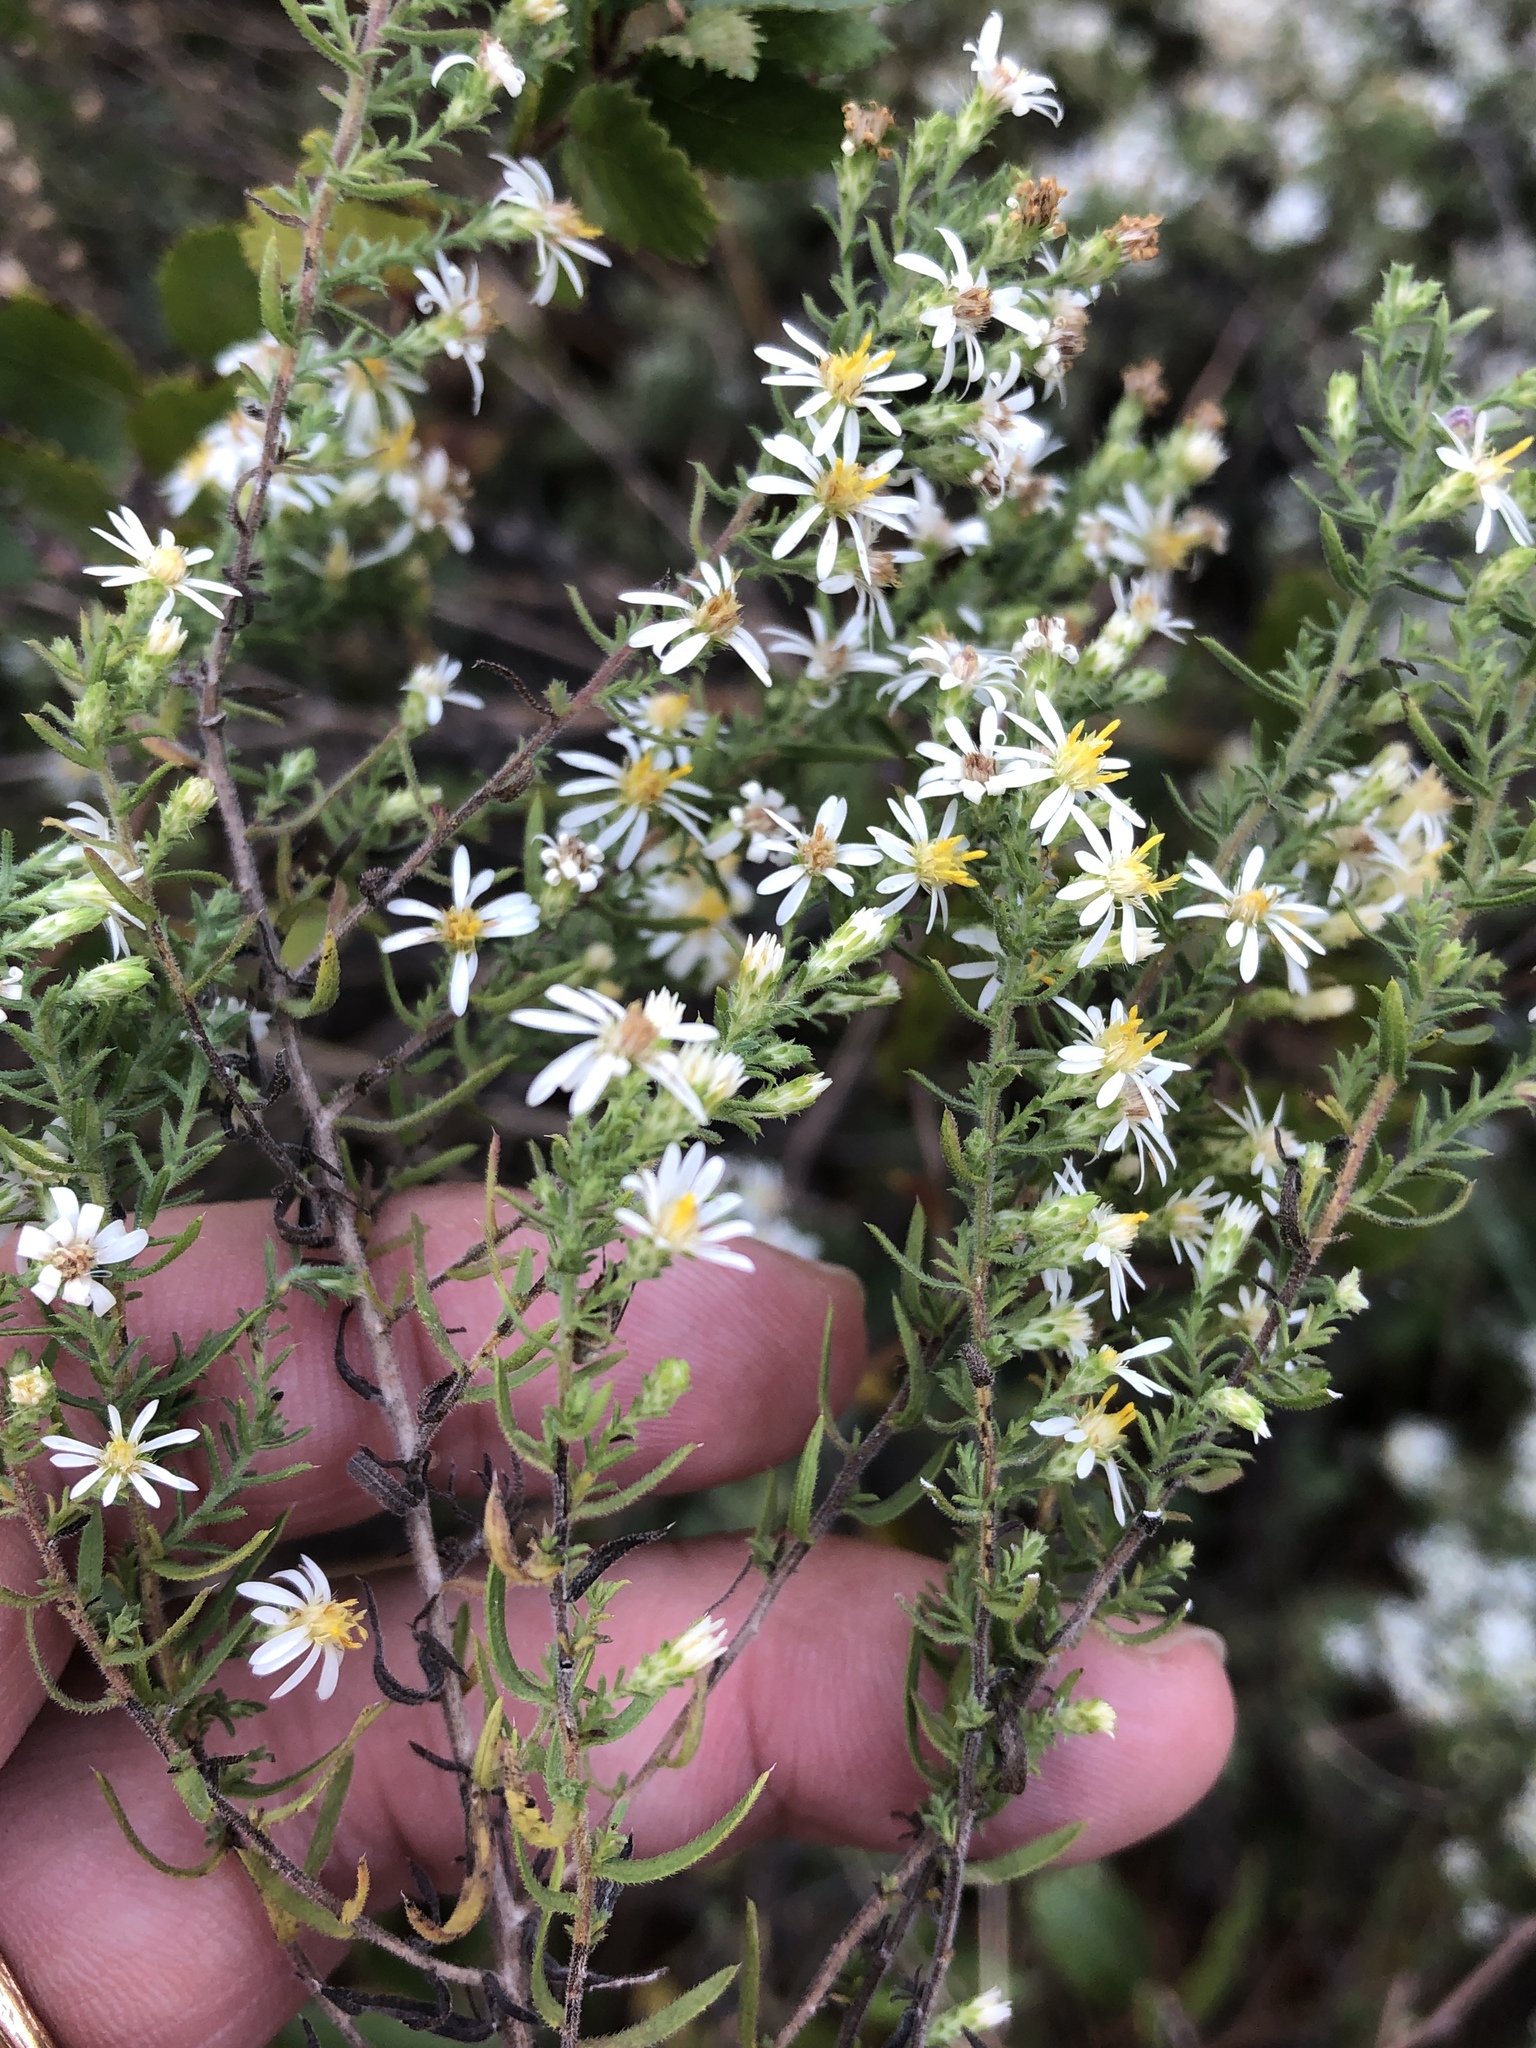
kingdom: Plantae
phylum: Tracheophyta
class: Magnoliopsida
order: Asterales
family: Asteraceae
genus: Symphyotrichum
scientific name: Symphyotrichum ericoides
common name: Heath aster
